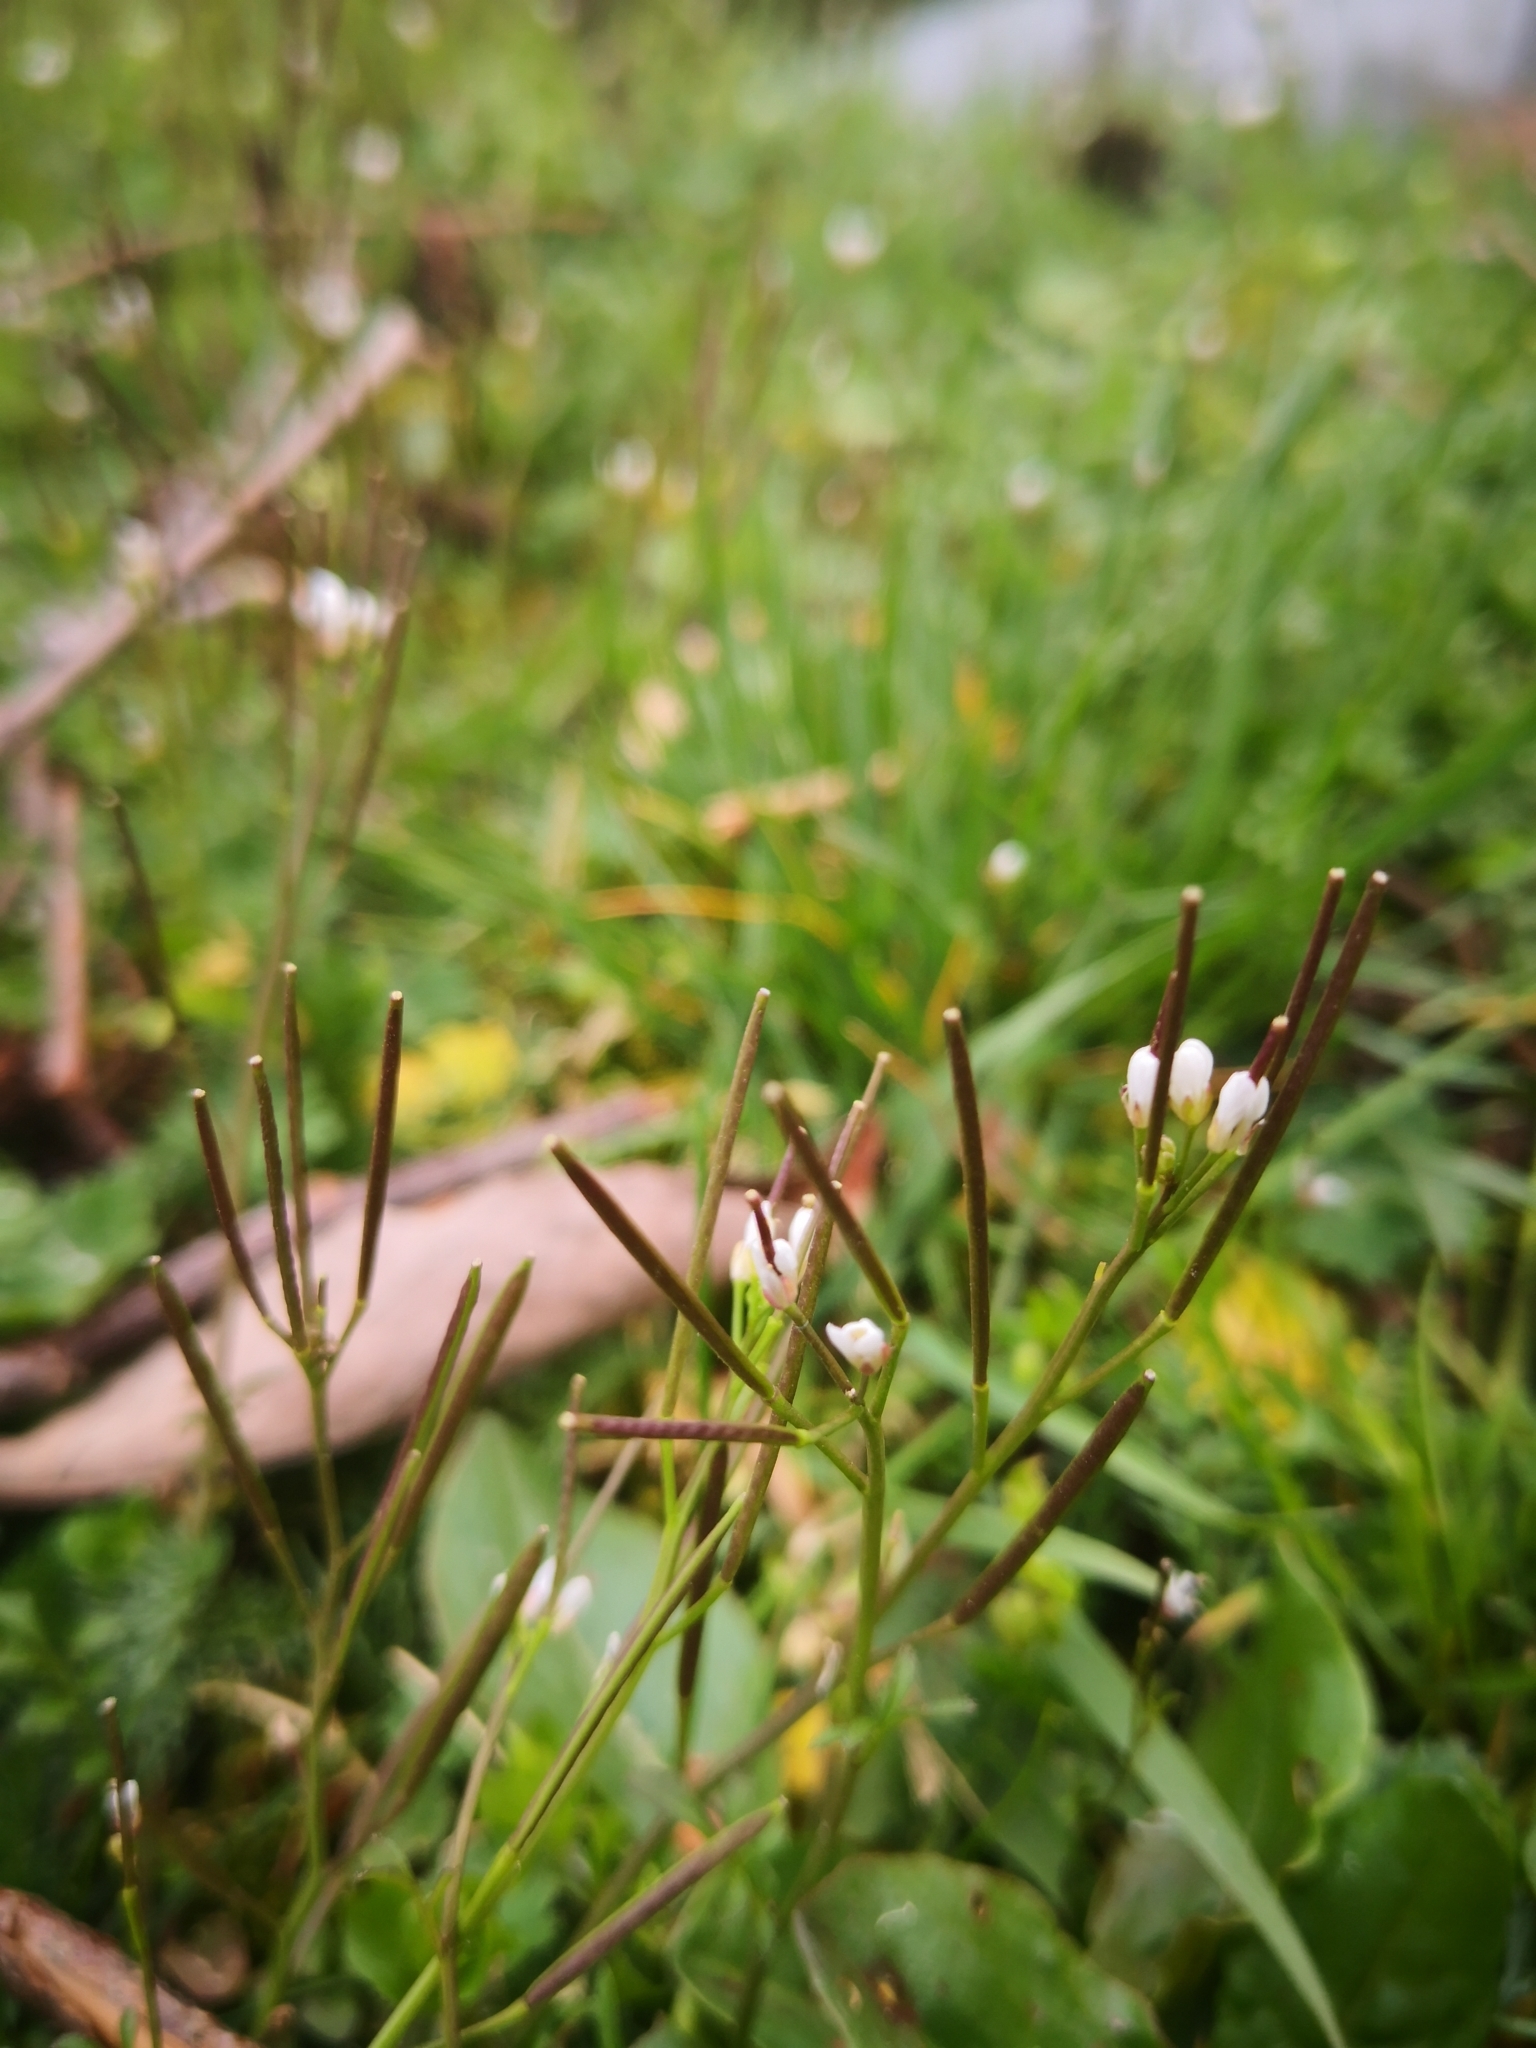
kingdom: Plantae
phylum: Tracheophyta
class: Magnoliopsida
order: Brassicales
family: Brassicaceae
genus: Cardamine
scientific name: Cardamine hirsuta
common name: Hairy bittercress
